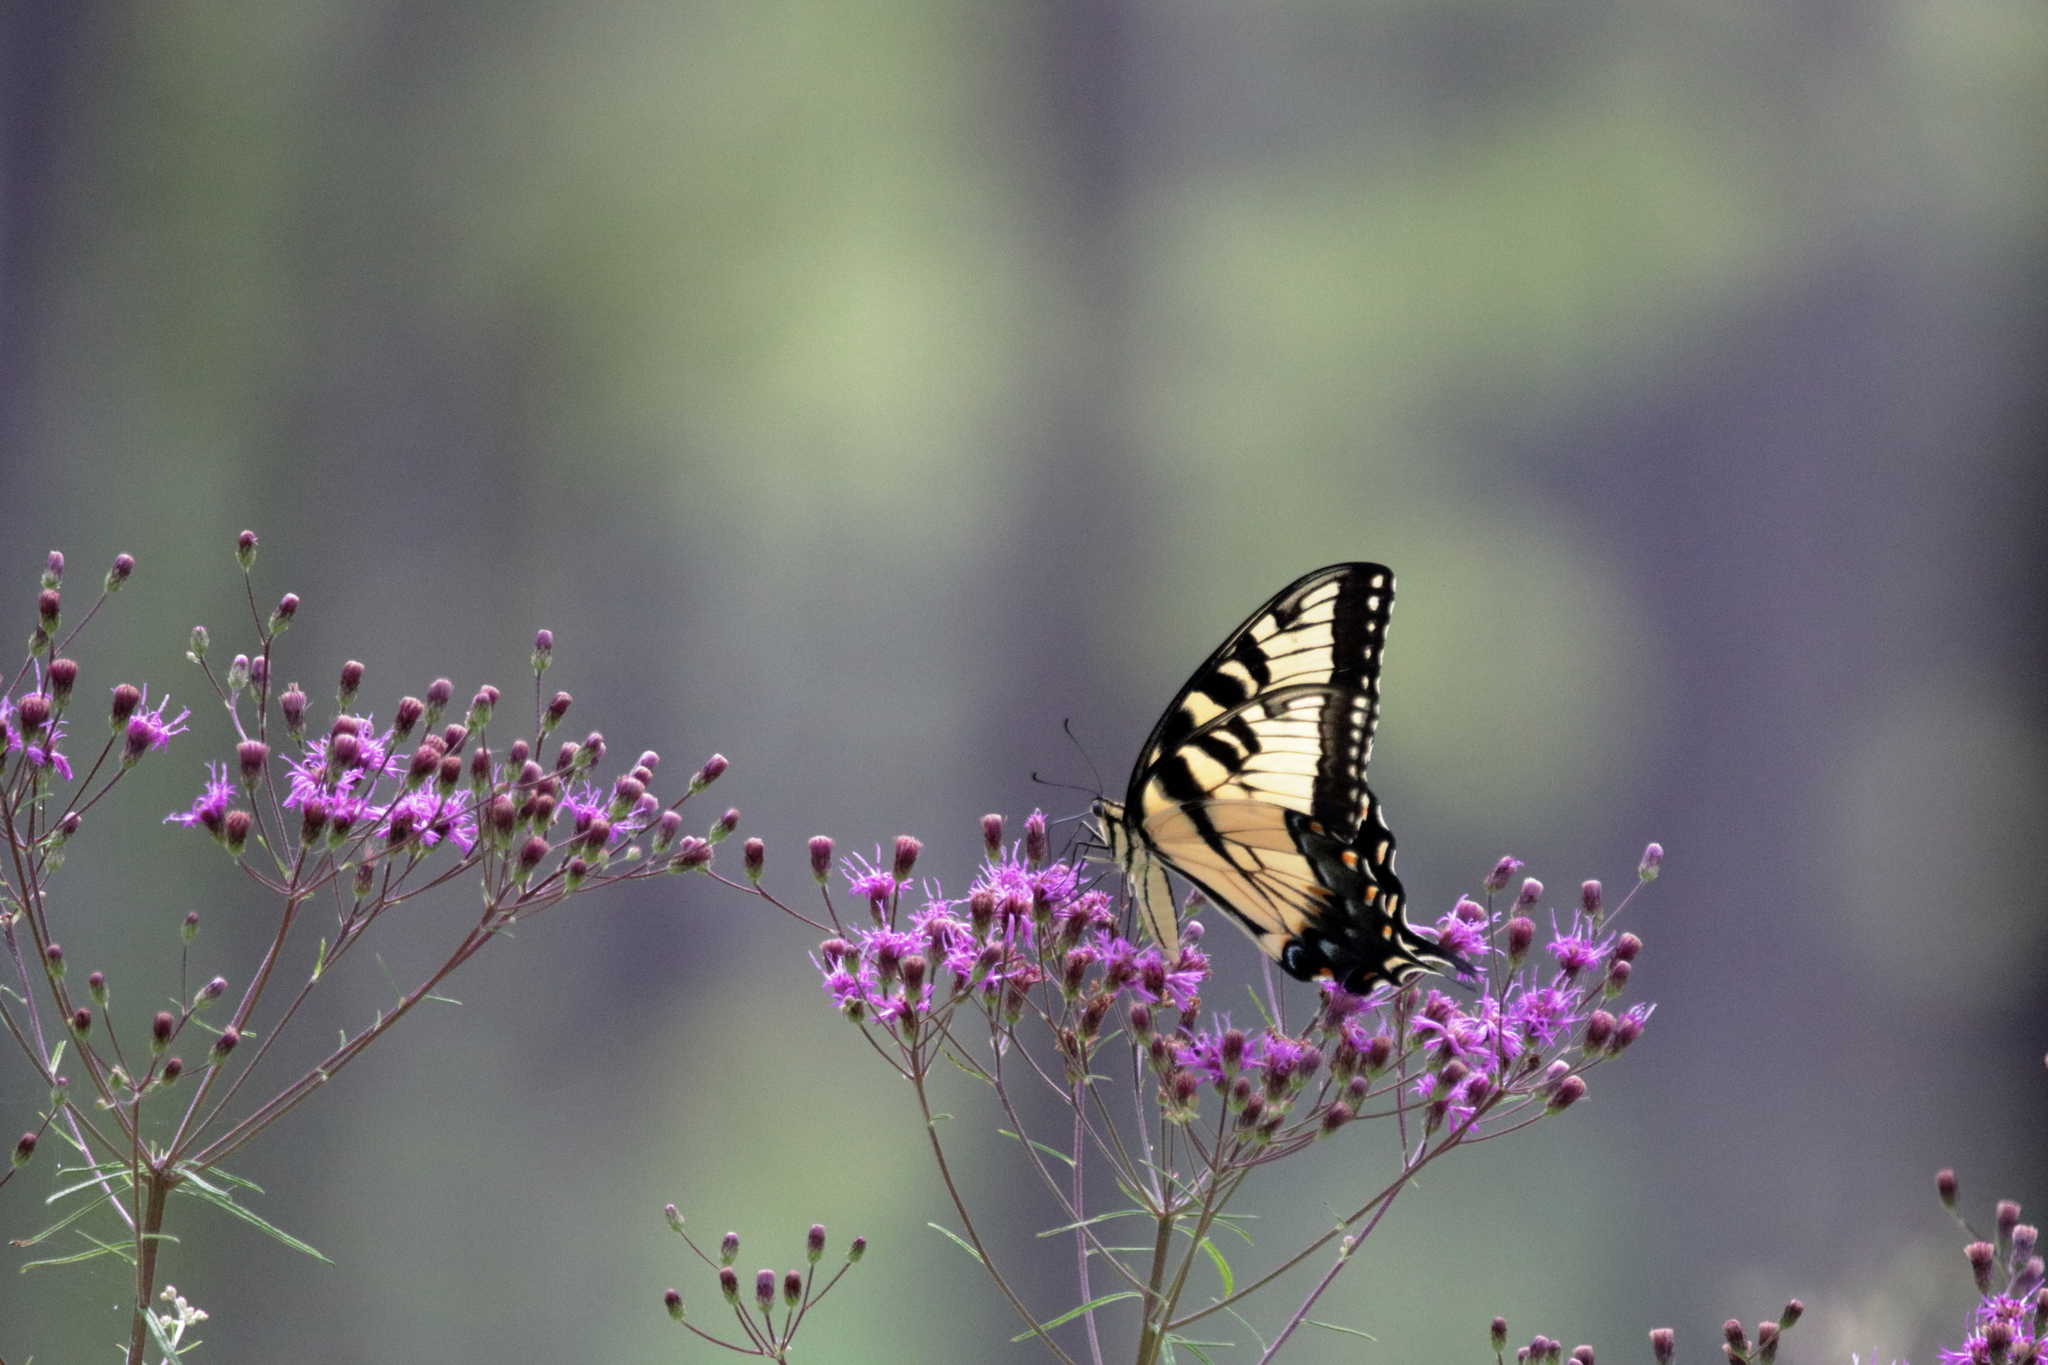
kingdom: Animalia
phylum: Arthropoda
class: Insecta
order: Lepidoptera
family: Papilionidae
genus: Papilio
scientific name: Papilio glaucus
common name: Tiger swallowtail
